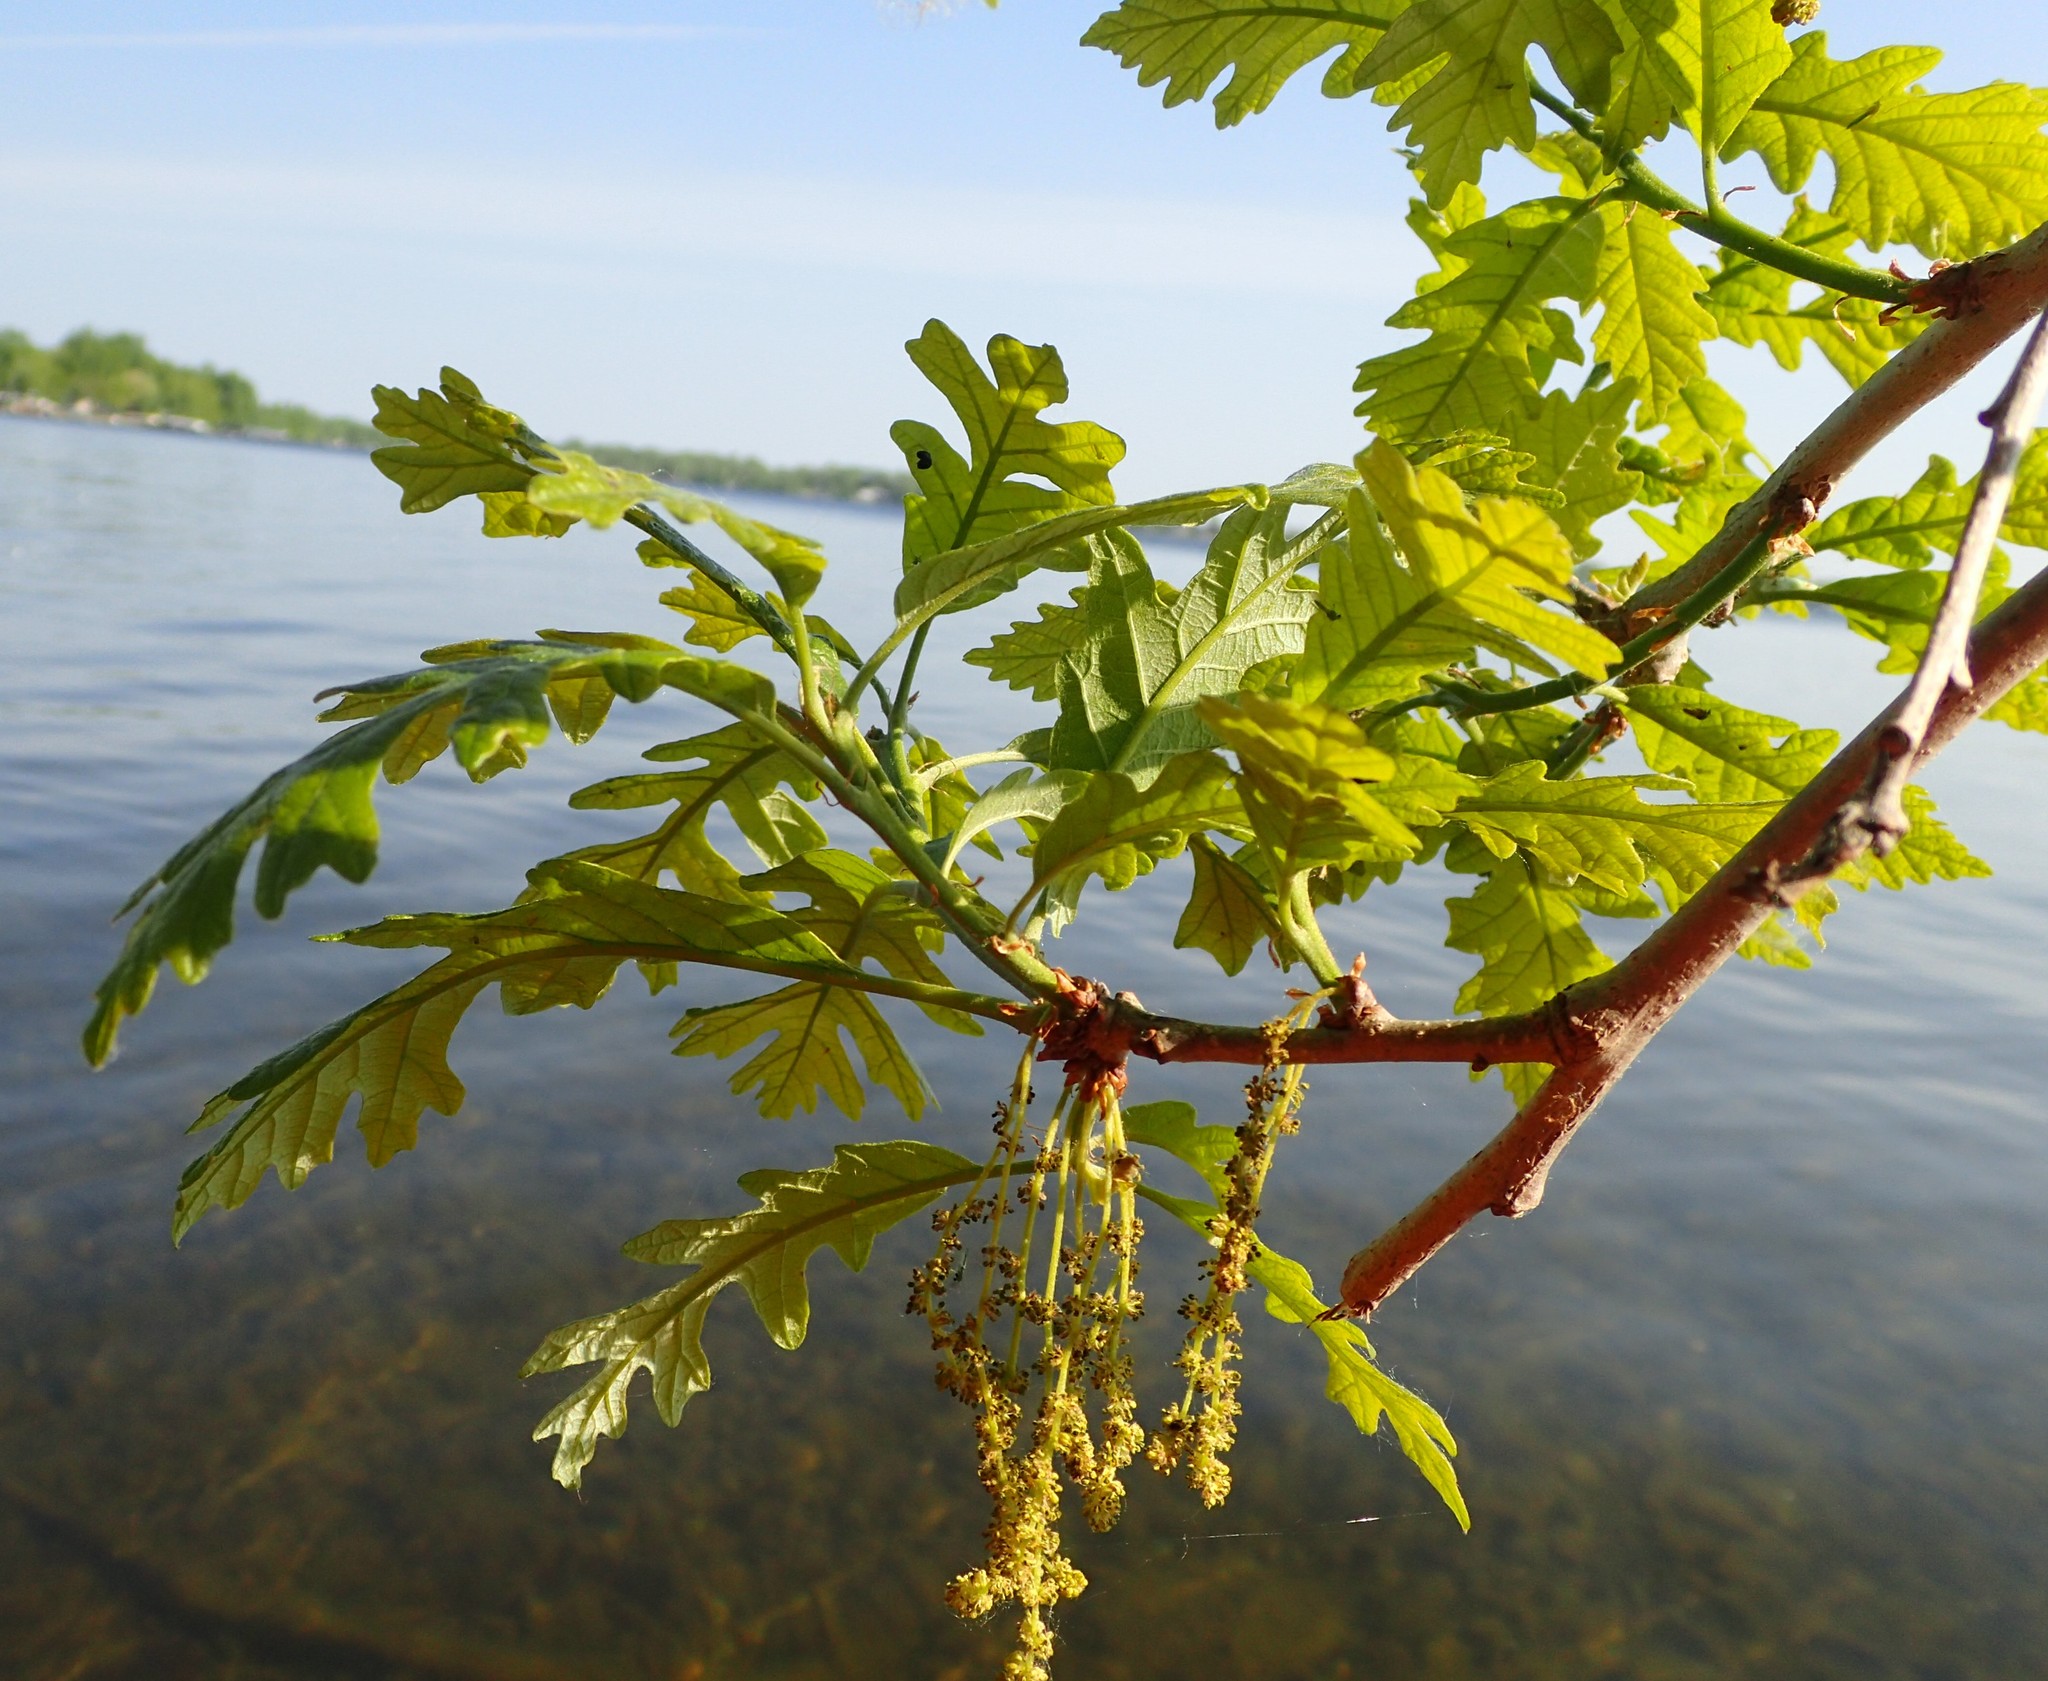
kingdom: Plantae
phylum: Tracheophyta
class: Magnoliopsida
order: Fagales
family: Fagaceae
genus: Quercus
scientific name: Quercus macrocarpa
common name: Bur oak
